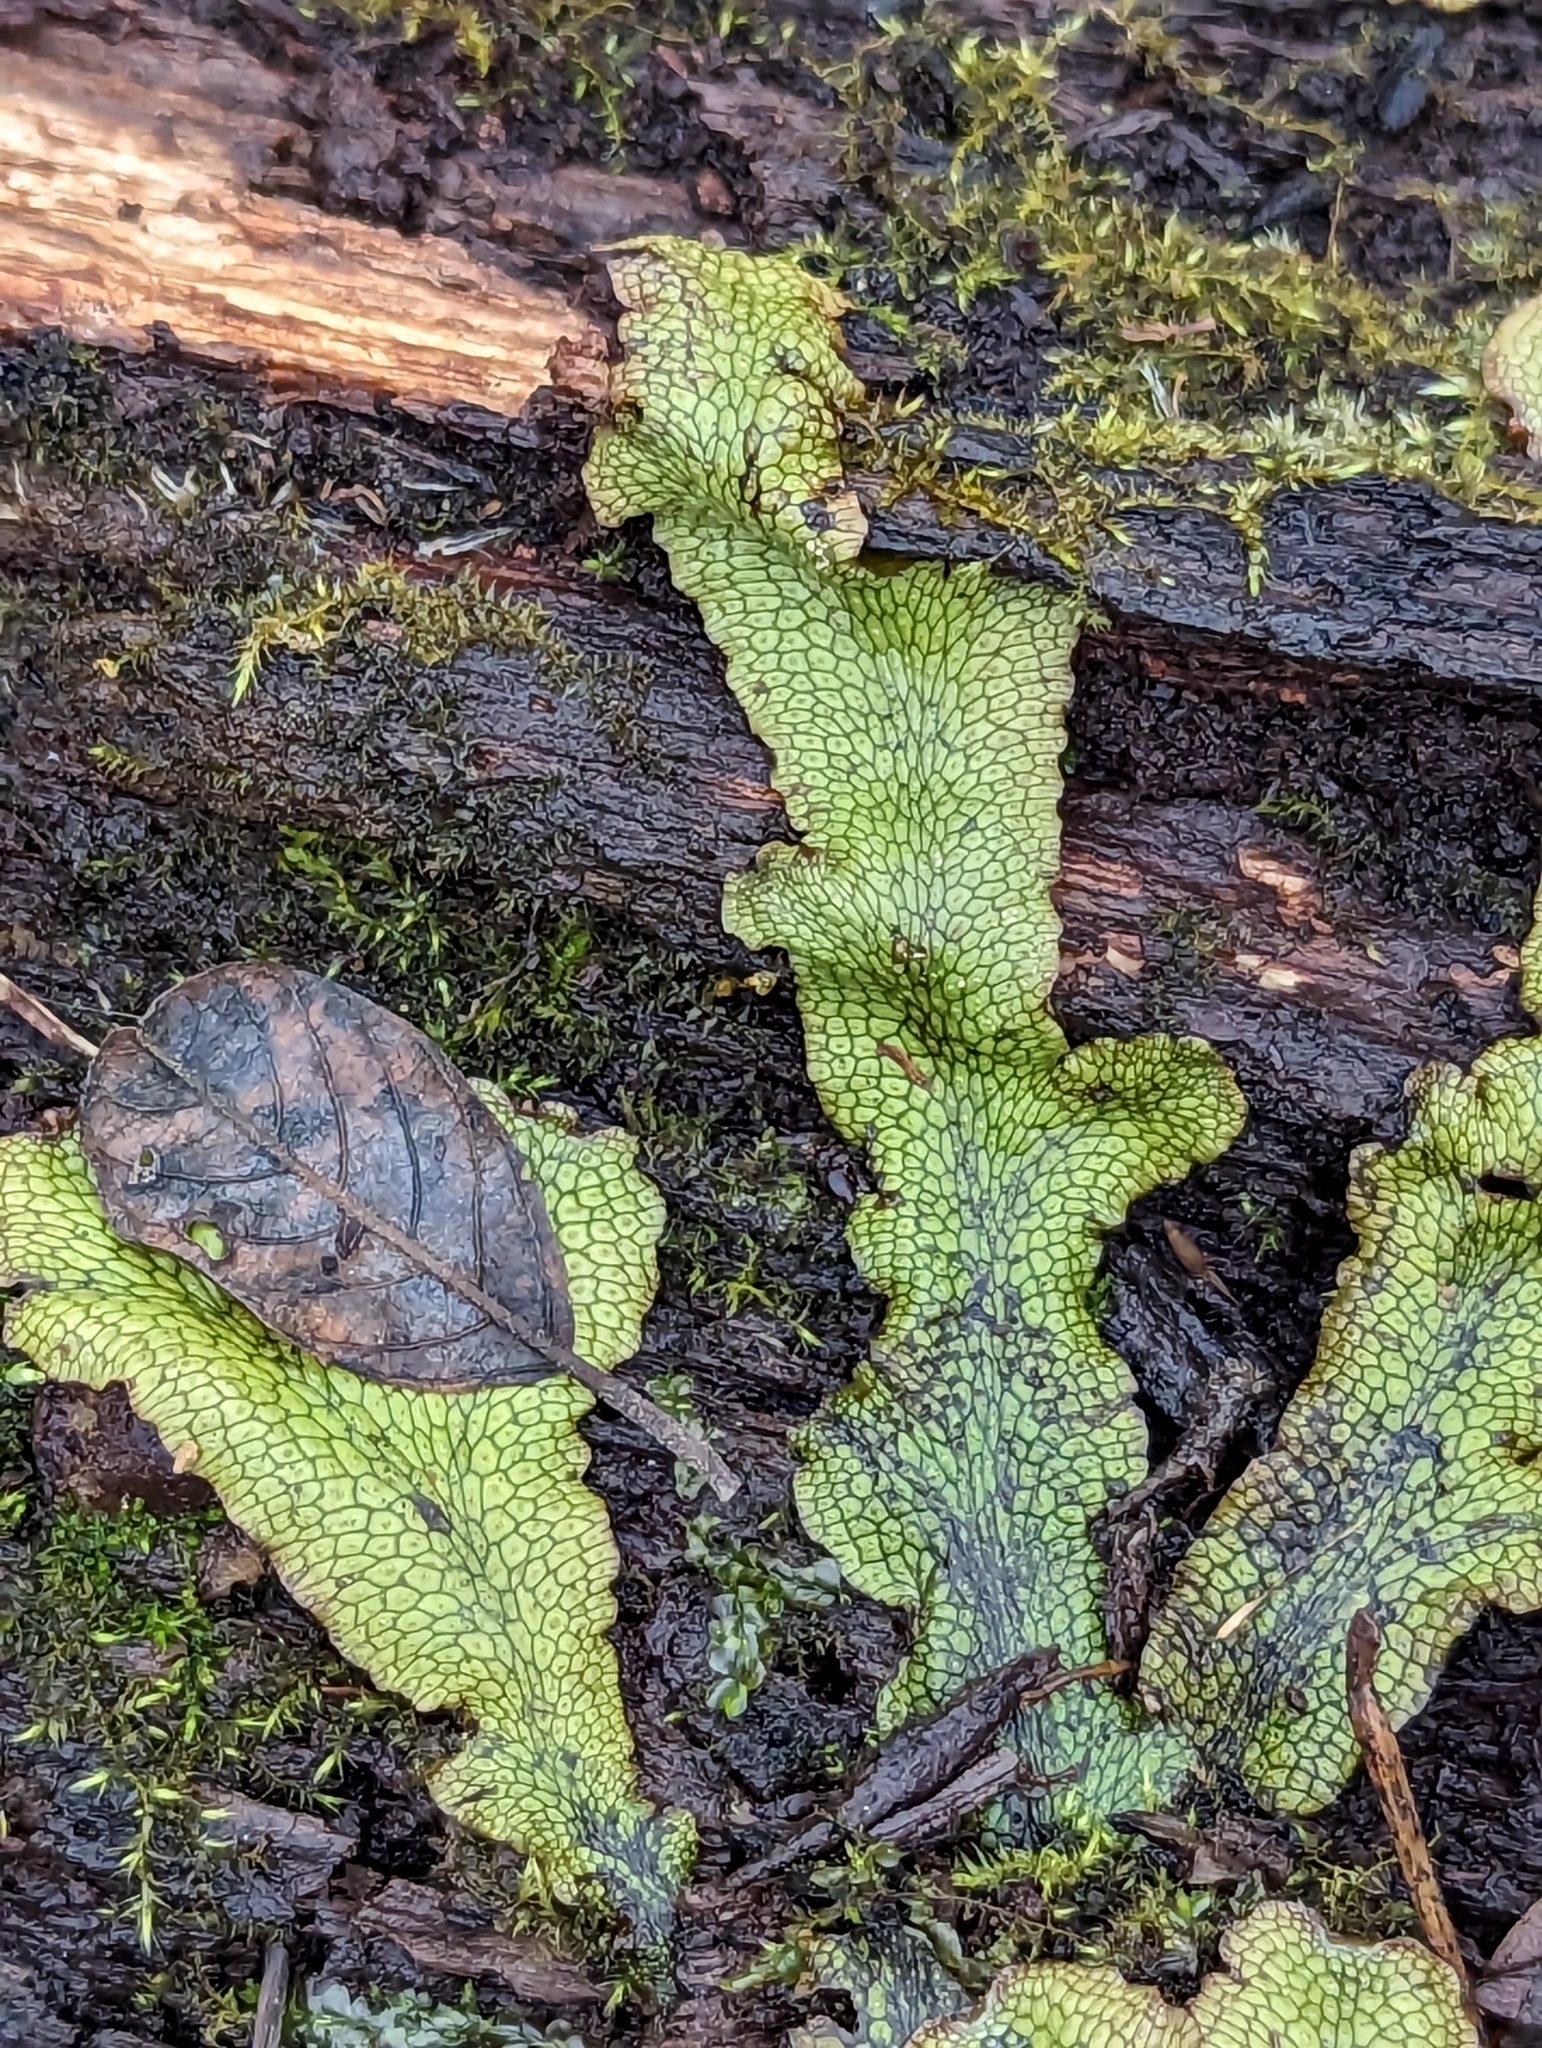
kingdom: Plantae
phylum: Marchantiophyta
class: Marchantiopsida
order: Marchantiales
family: Conocephalaceae
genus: Conocephalum
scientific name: Conocephalum salebrosum
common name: Cat-tongue liverwort
